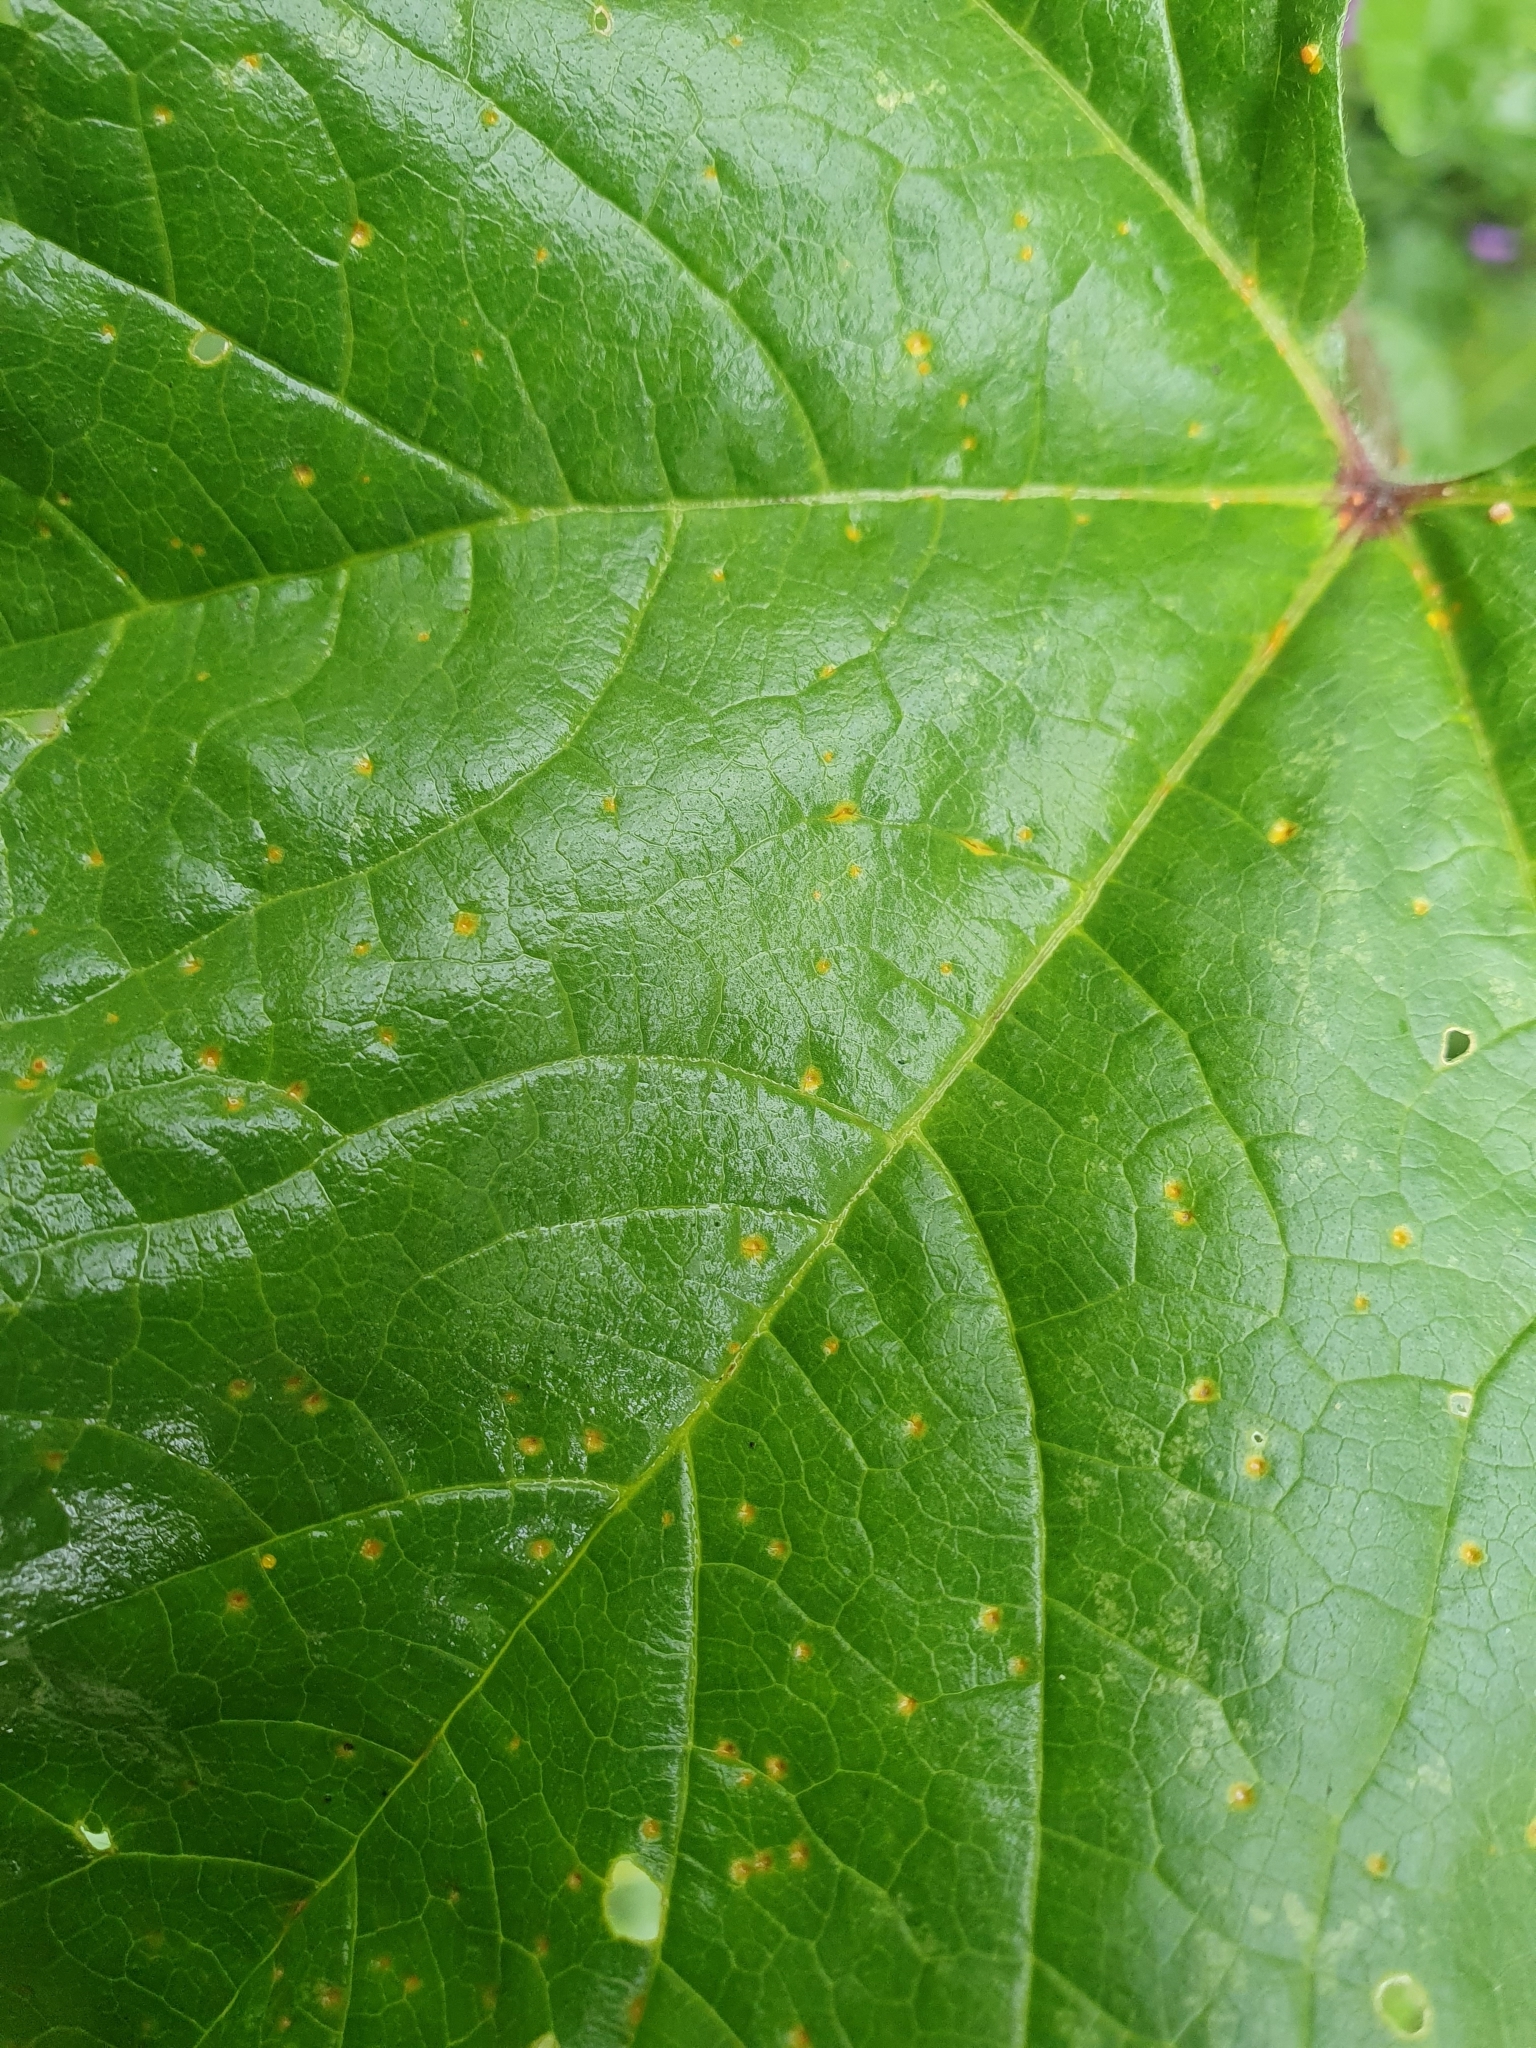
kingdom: Fungi
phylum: Basidiomycota
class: Pucciniomycetes
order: Pucciniales
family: Pucciniaceae
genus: Puccinia
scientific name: Puccinia malvacearum
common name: Hollyhock rust
